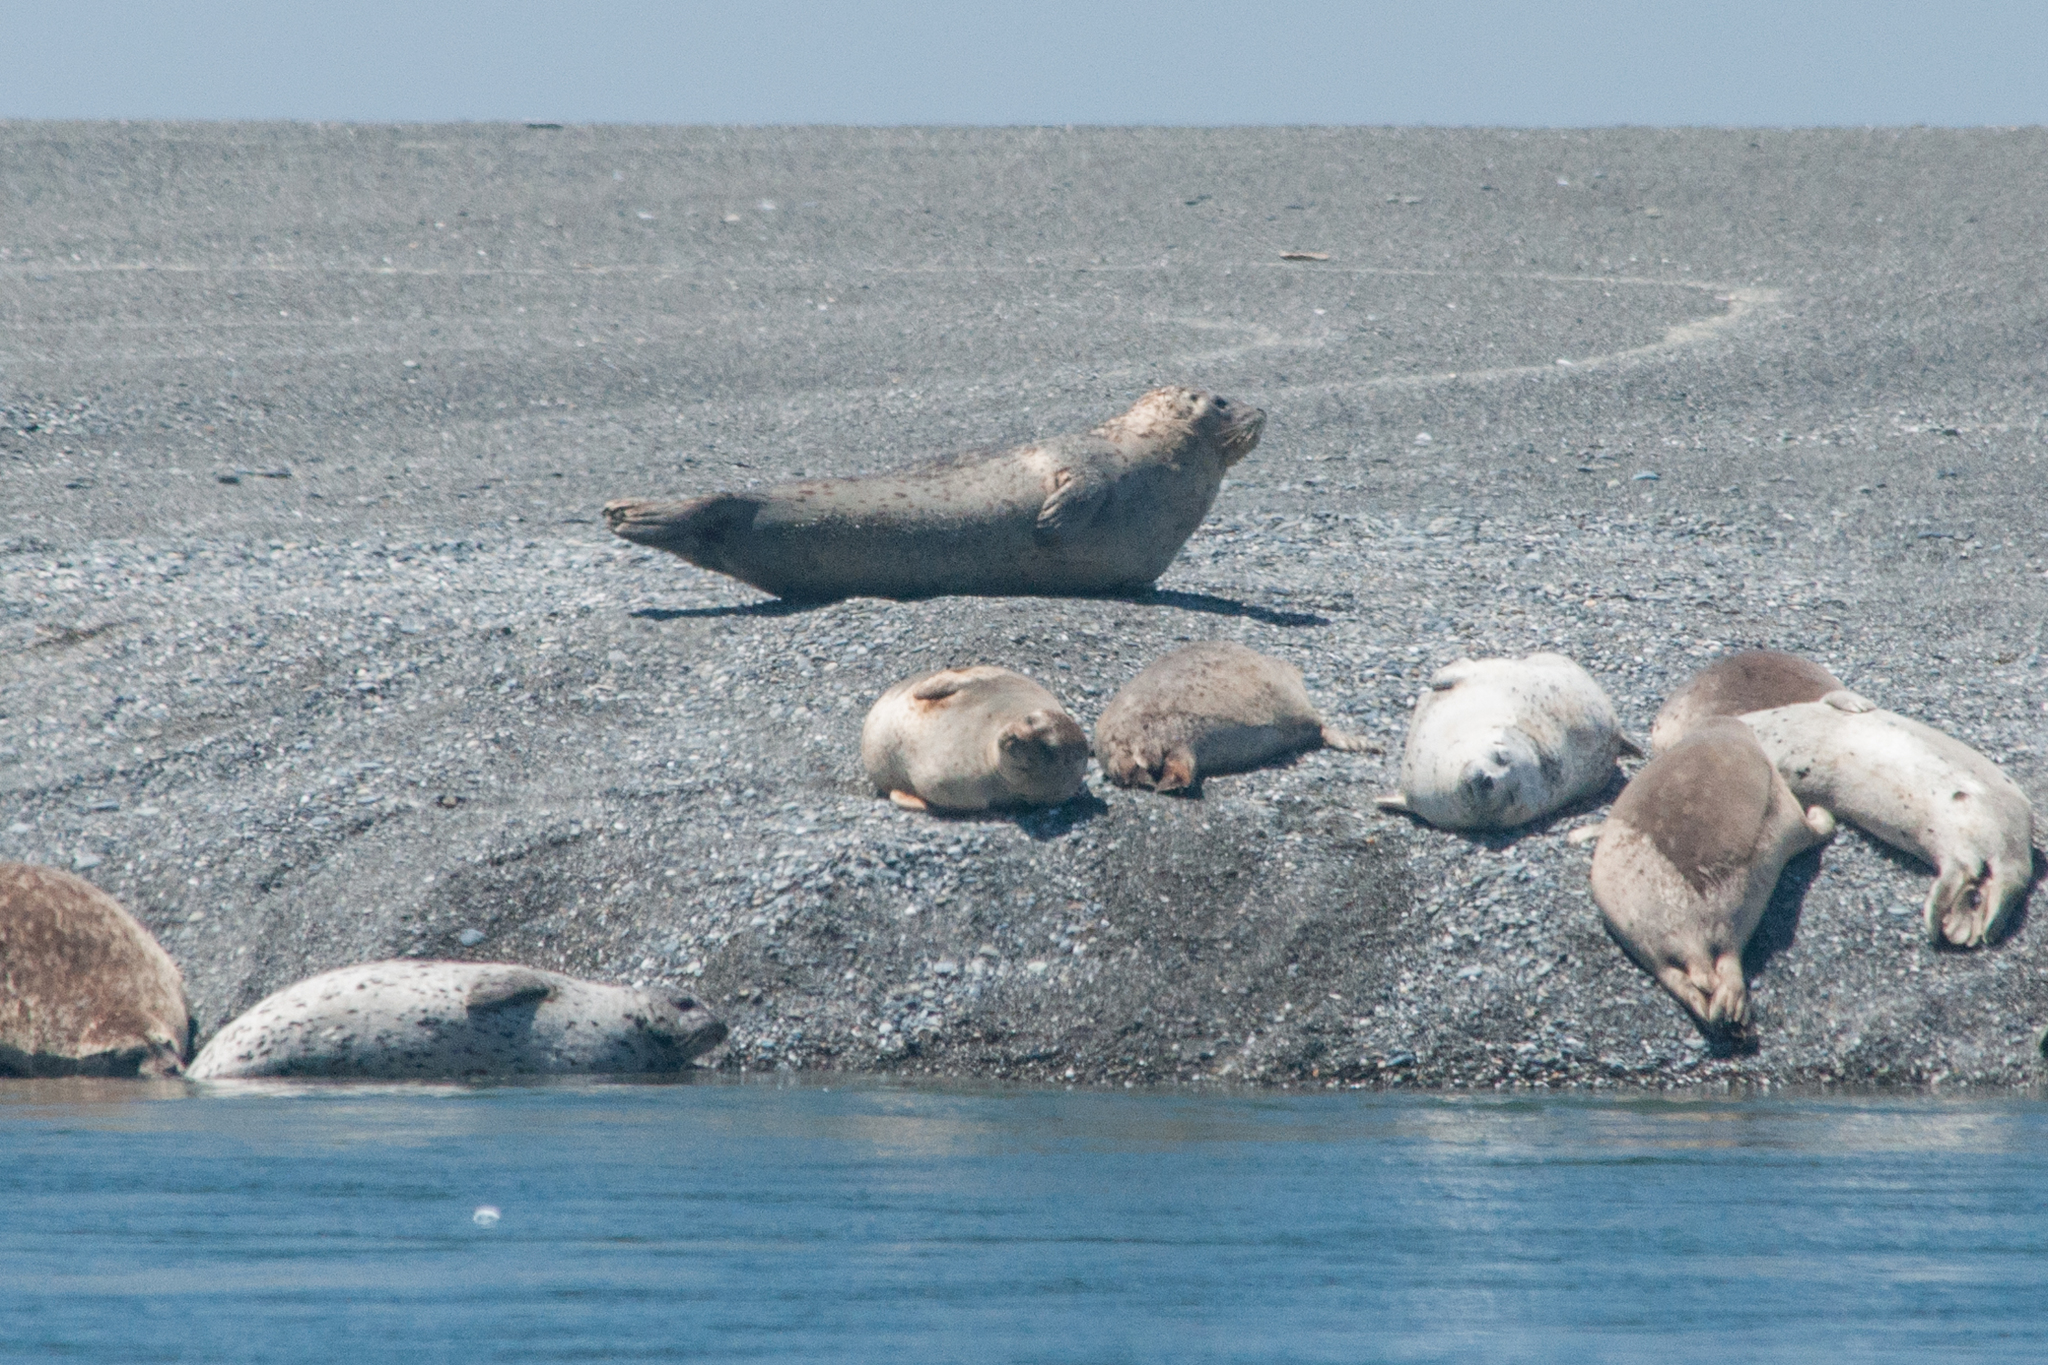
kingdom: Animalia
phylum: Chordata
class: Mammalia
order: Carnivora
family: Phocidae
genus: Phoca
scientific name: Phoca vitulina
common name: Harbor seal
